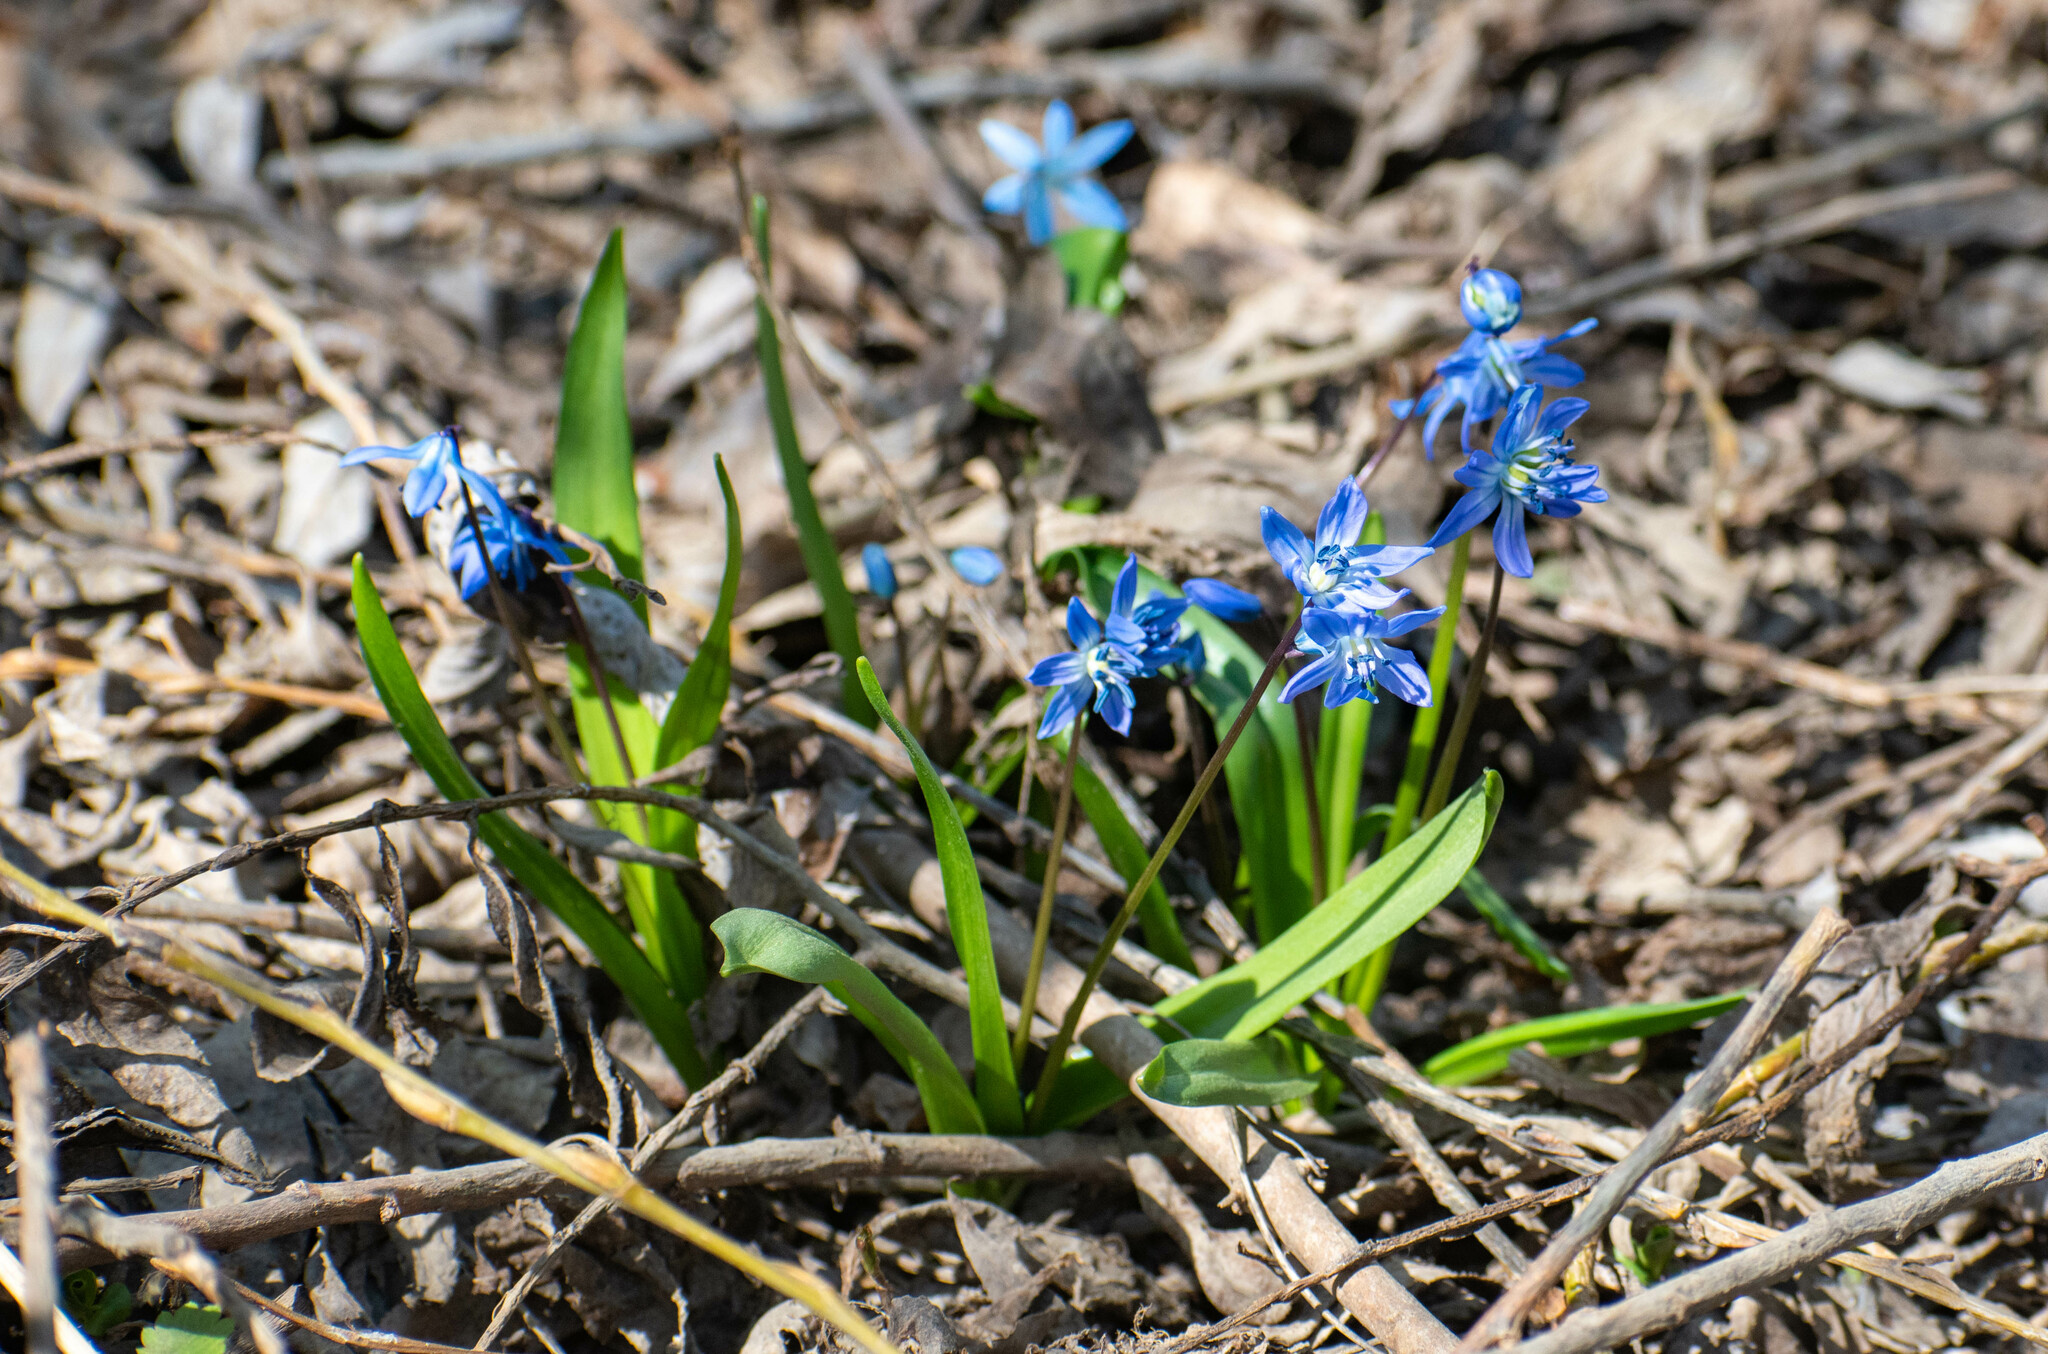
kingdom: Plantae
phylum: Tracheophyta
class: Liliopsida
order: Asparagales
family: Asparagaceae
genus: Scilla
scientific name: Scilla siberica
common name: Siberian squill
